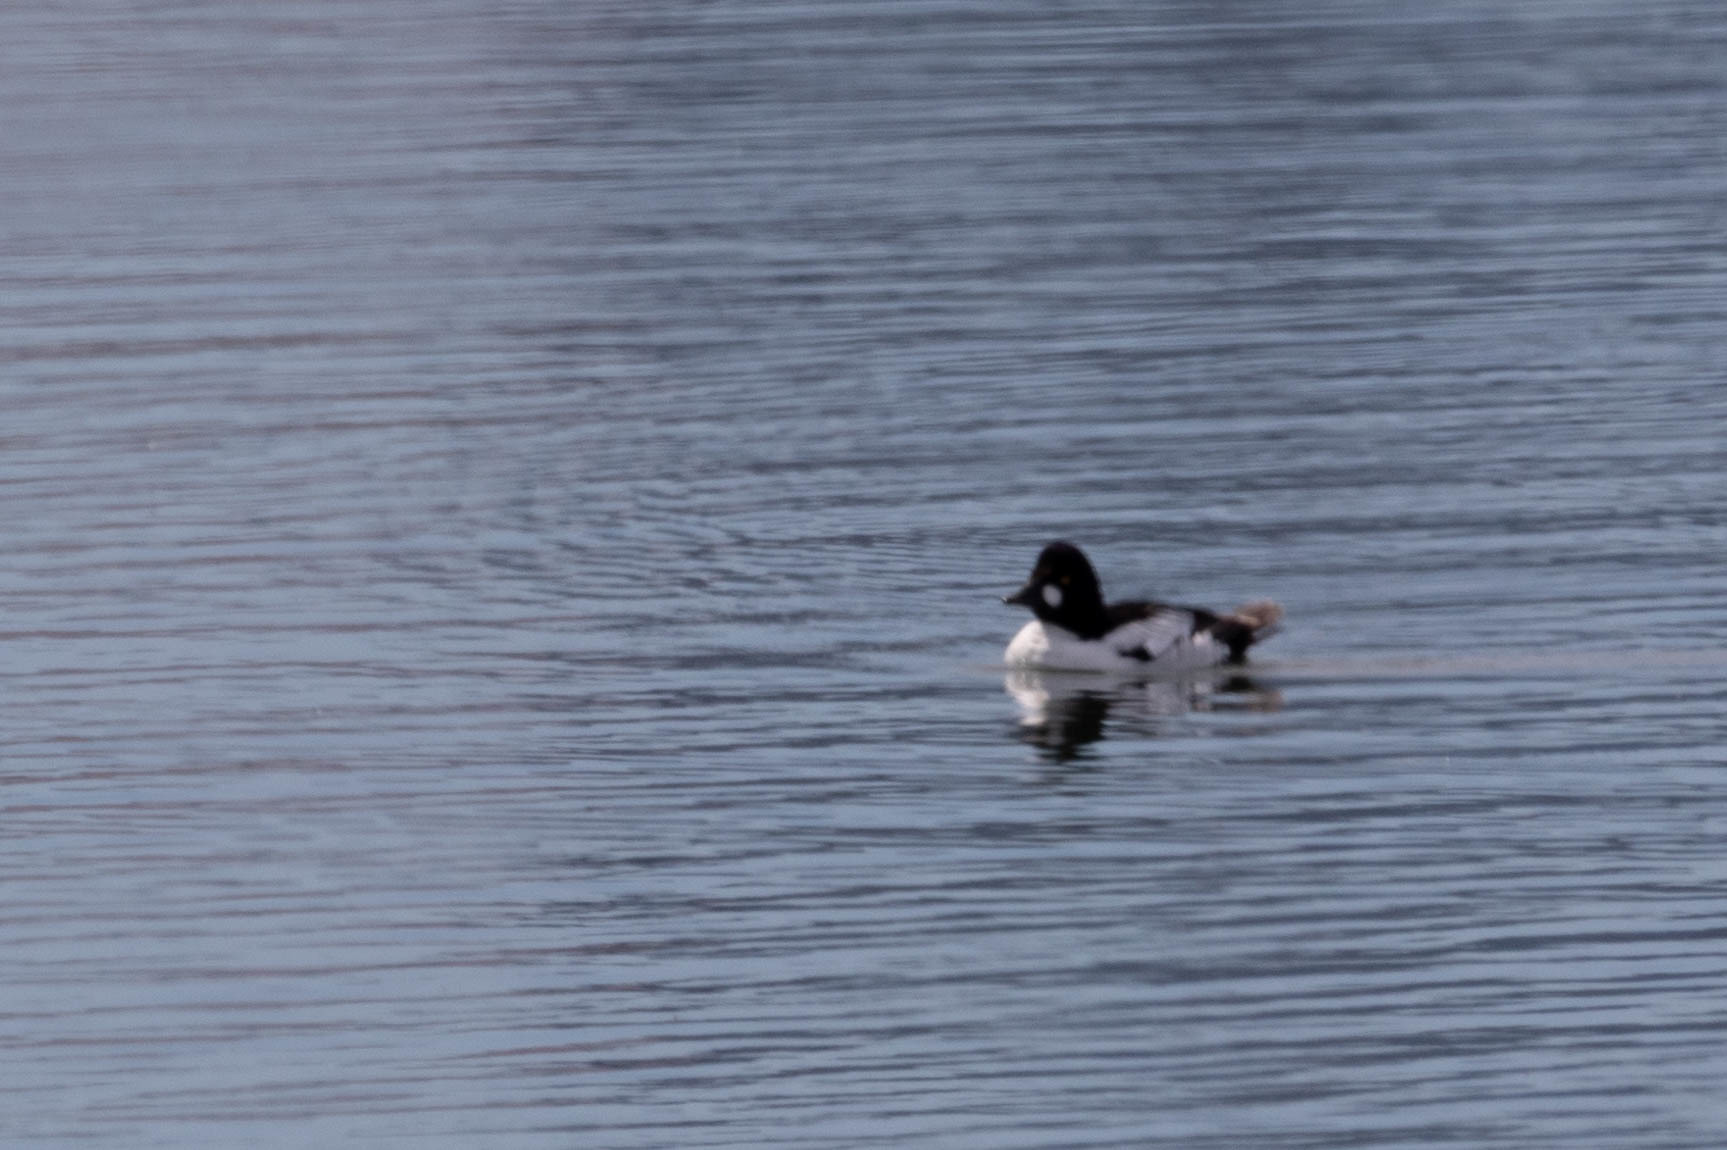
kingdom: Animalia
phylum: Chordata
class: Aves
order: Anseriformes
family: Anatidae
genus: Bucephala
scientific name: Bucephala clangula
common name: Common goldeneye
